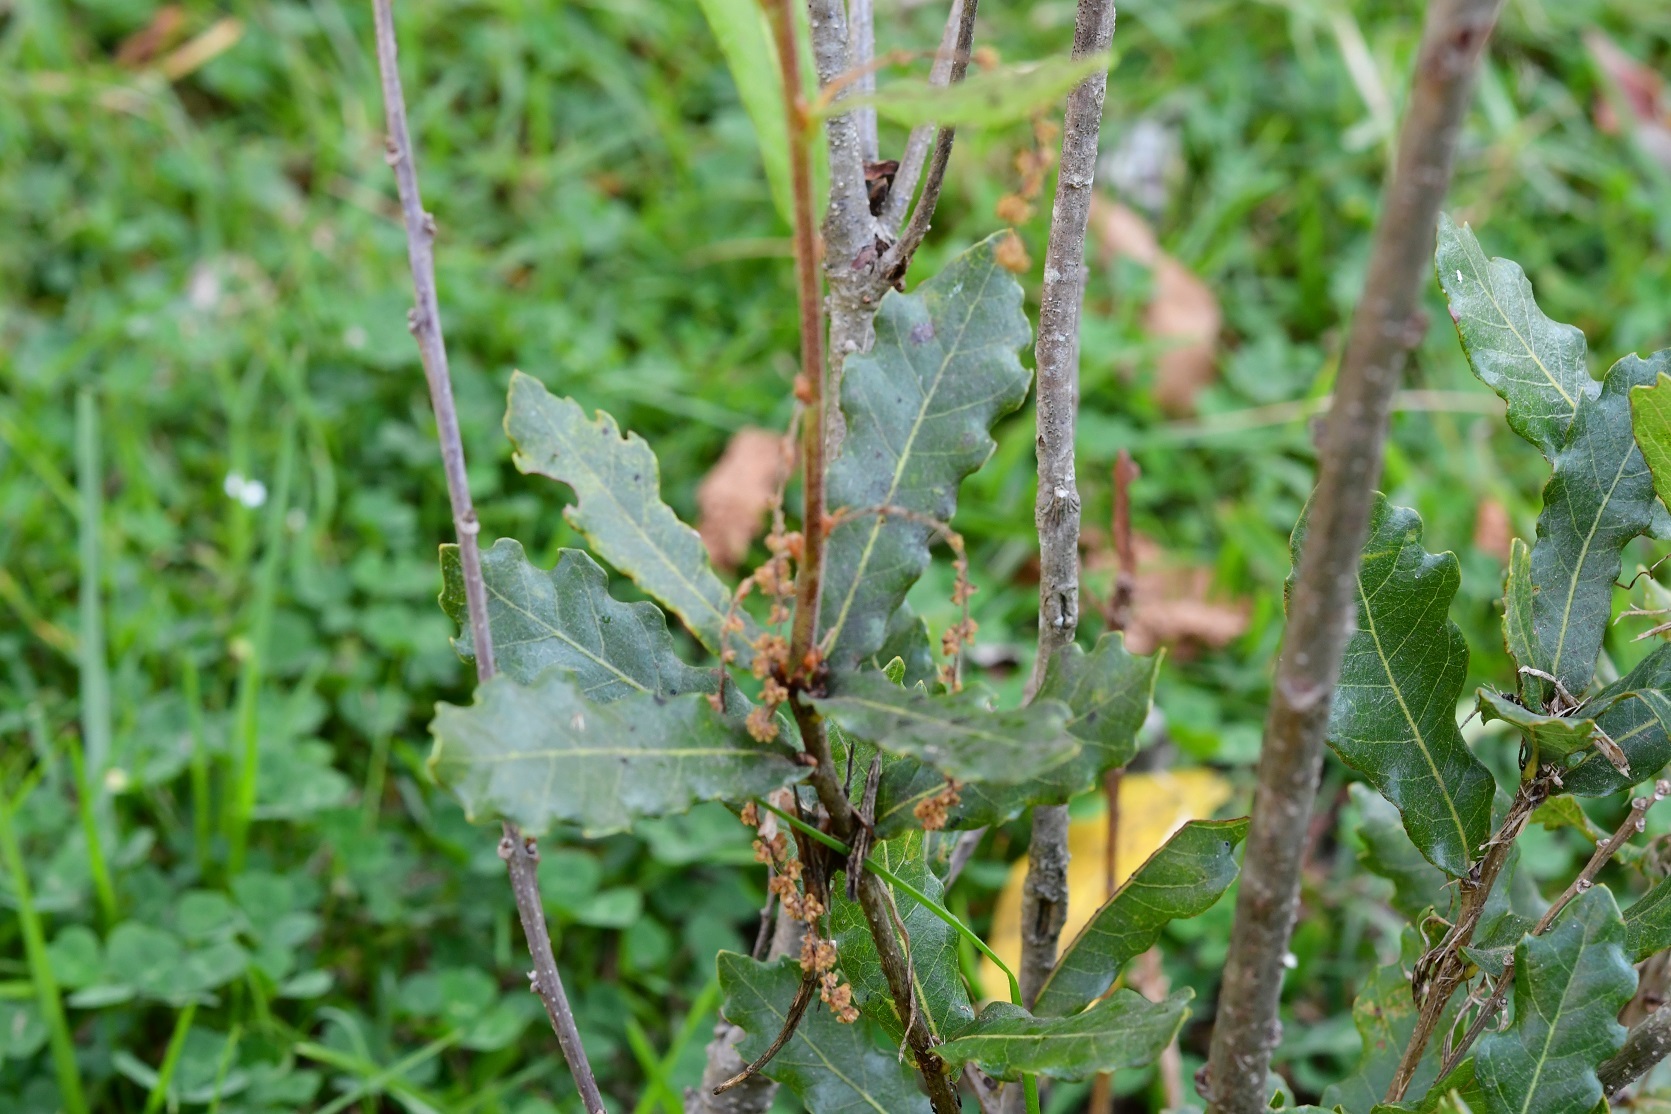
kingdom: Plantae
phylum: Tracheophyta
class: Magnoliopsida
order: Fagales
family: Fagaceae
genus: Quercus
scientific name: Quercus sebifera
